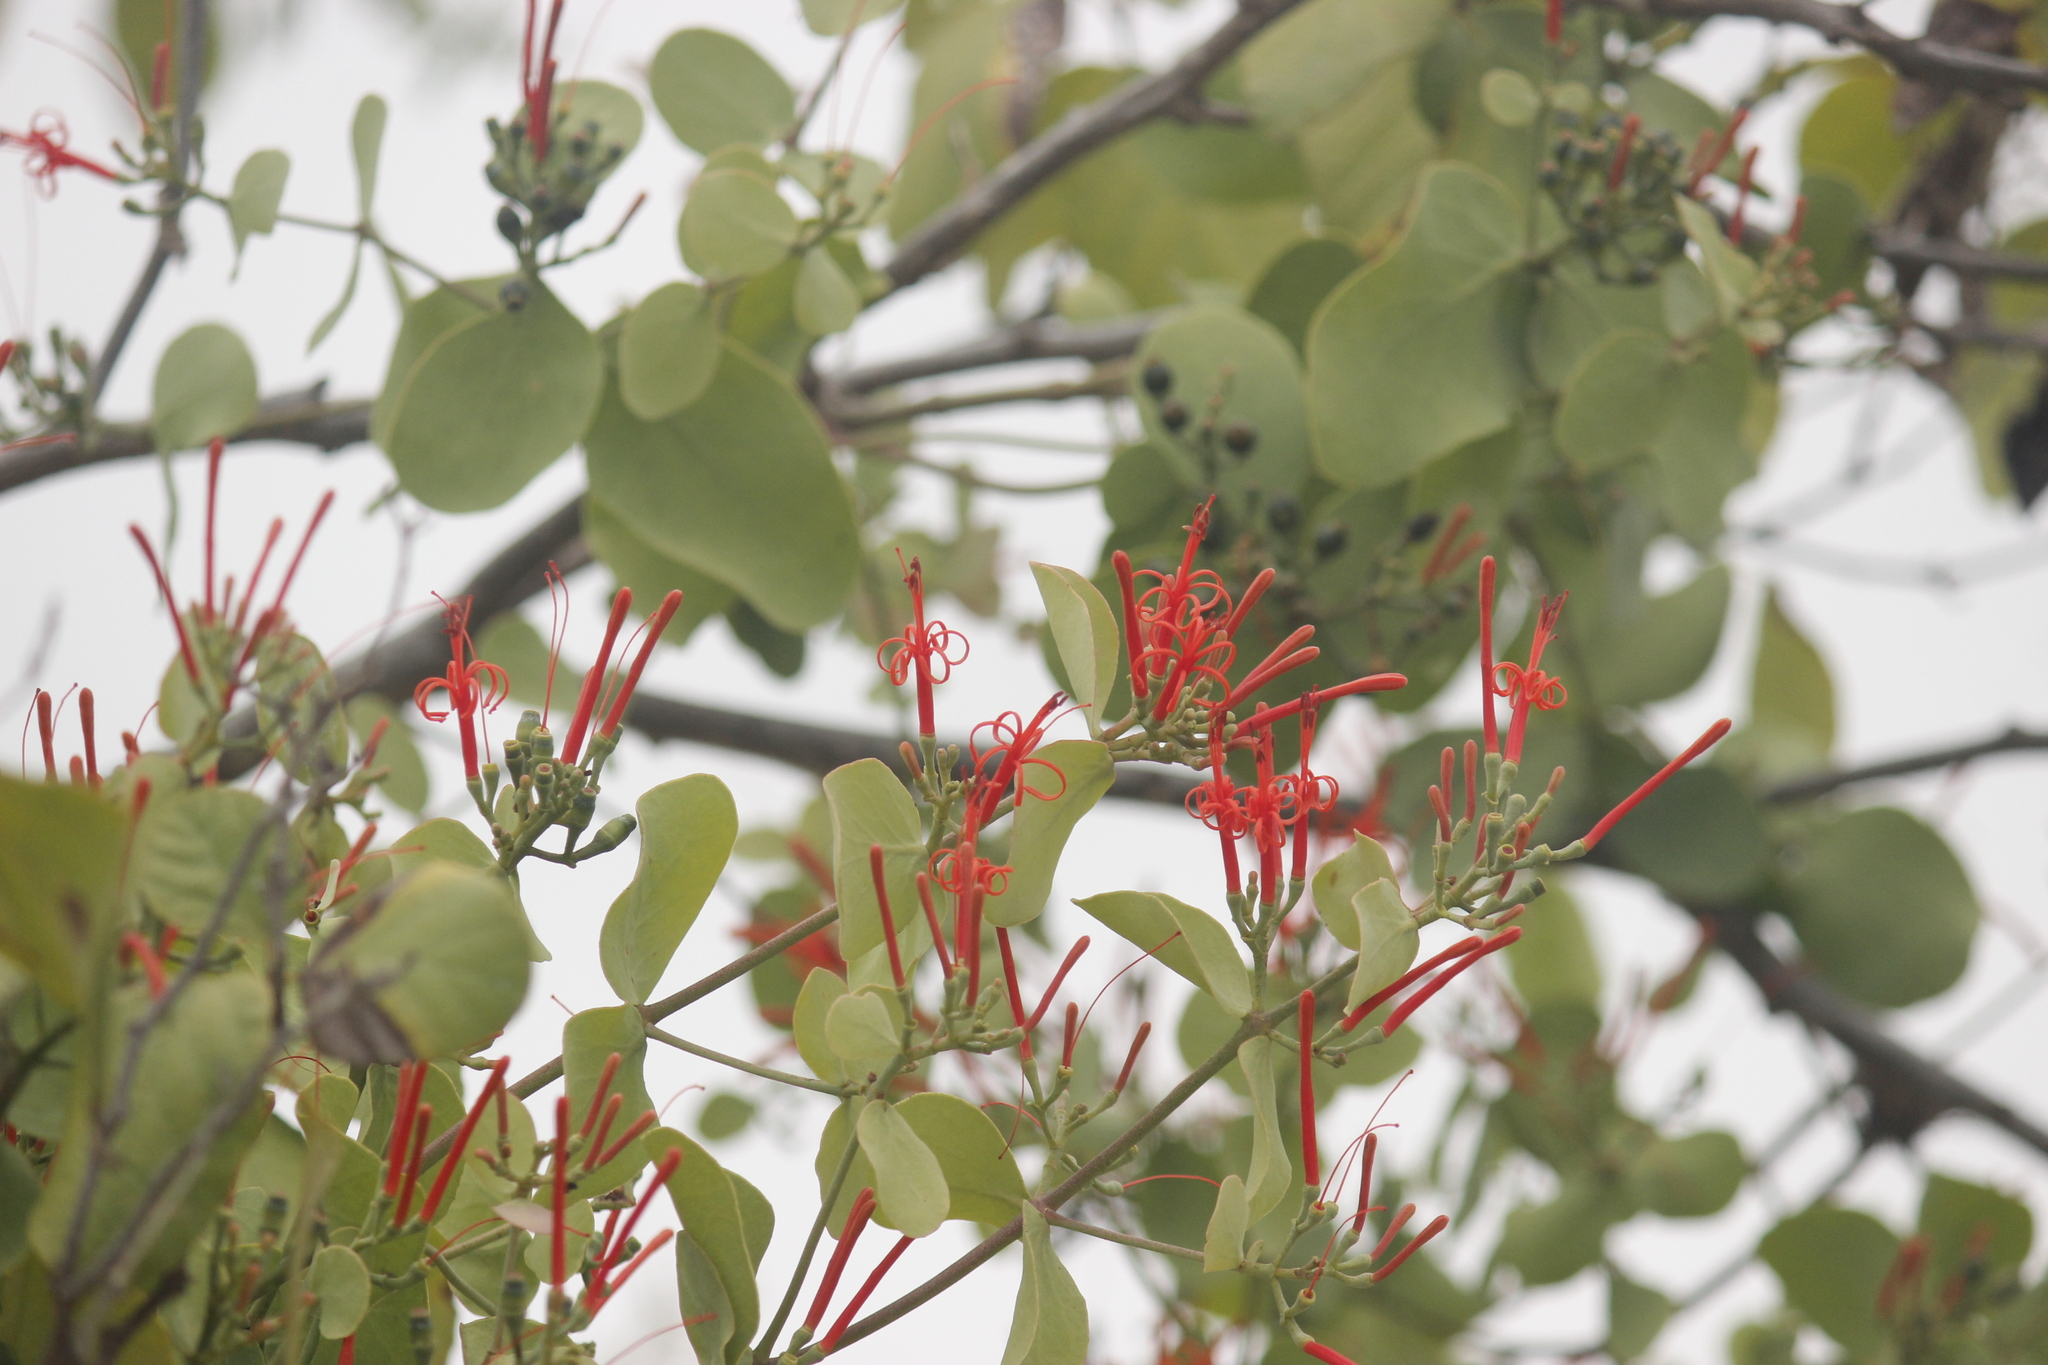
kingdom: Plantae
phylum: Tracheophyta
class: Magnoliopsida
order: Santalales
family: Loranthaceae
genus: Psittacanthus
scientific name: Psittacanthus divaricatus
